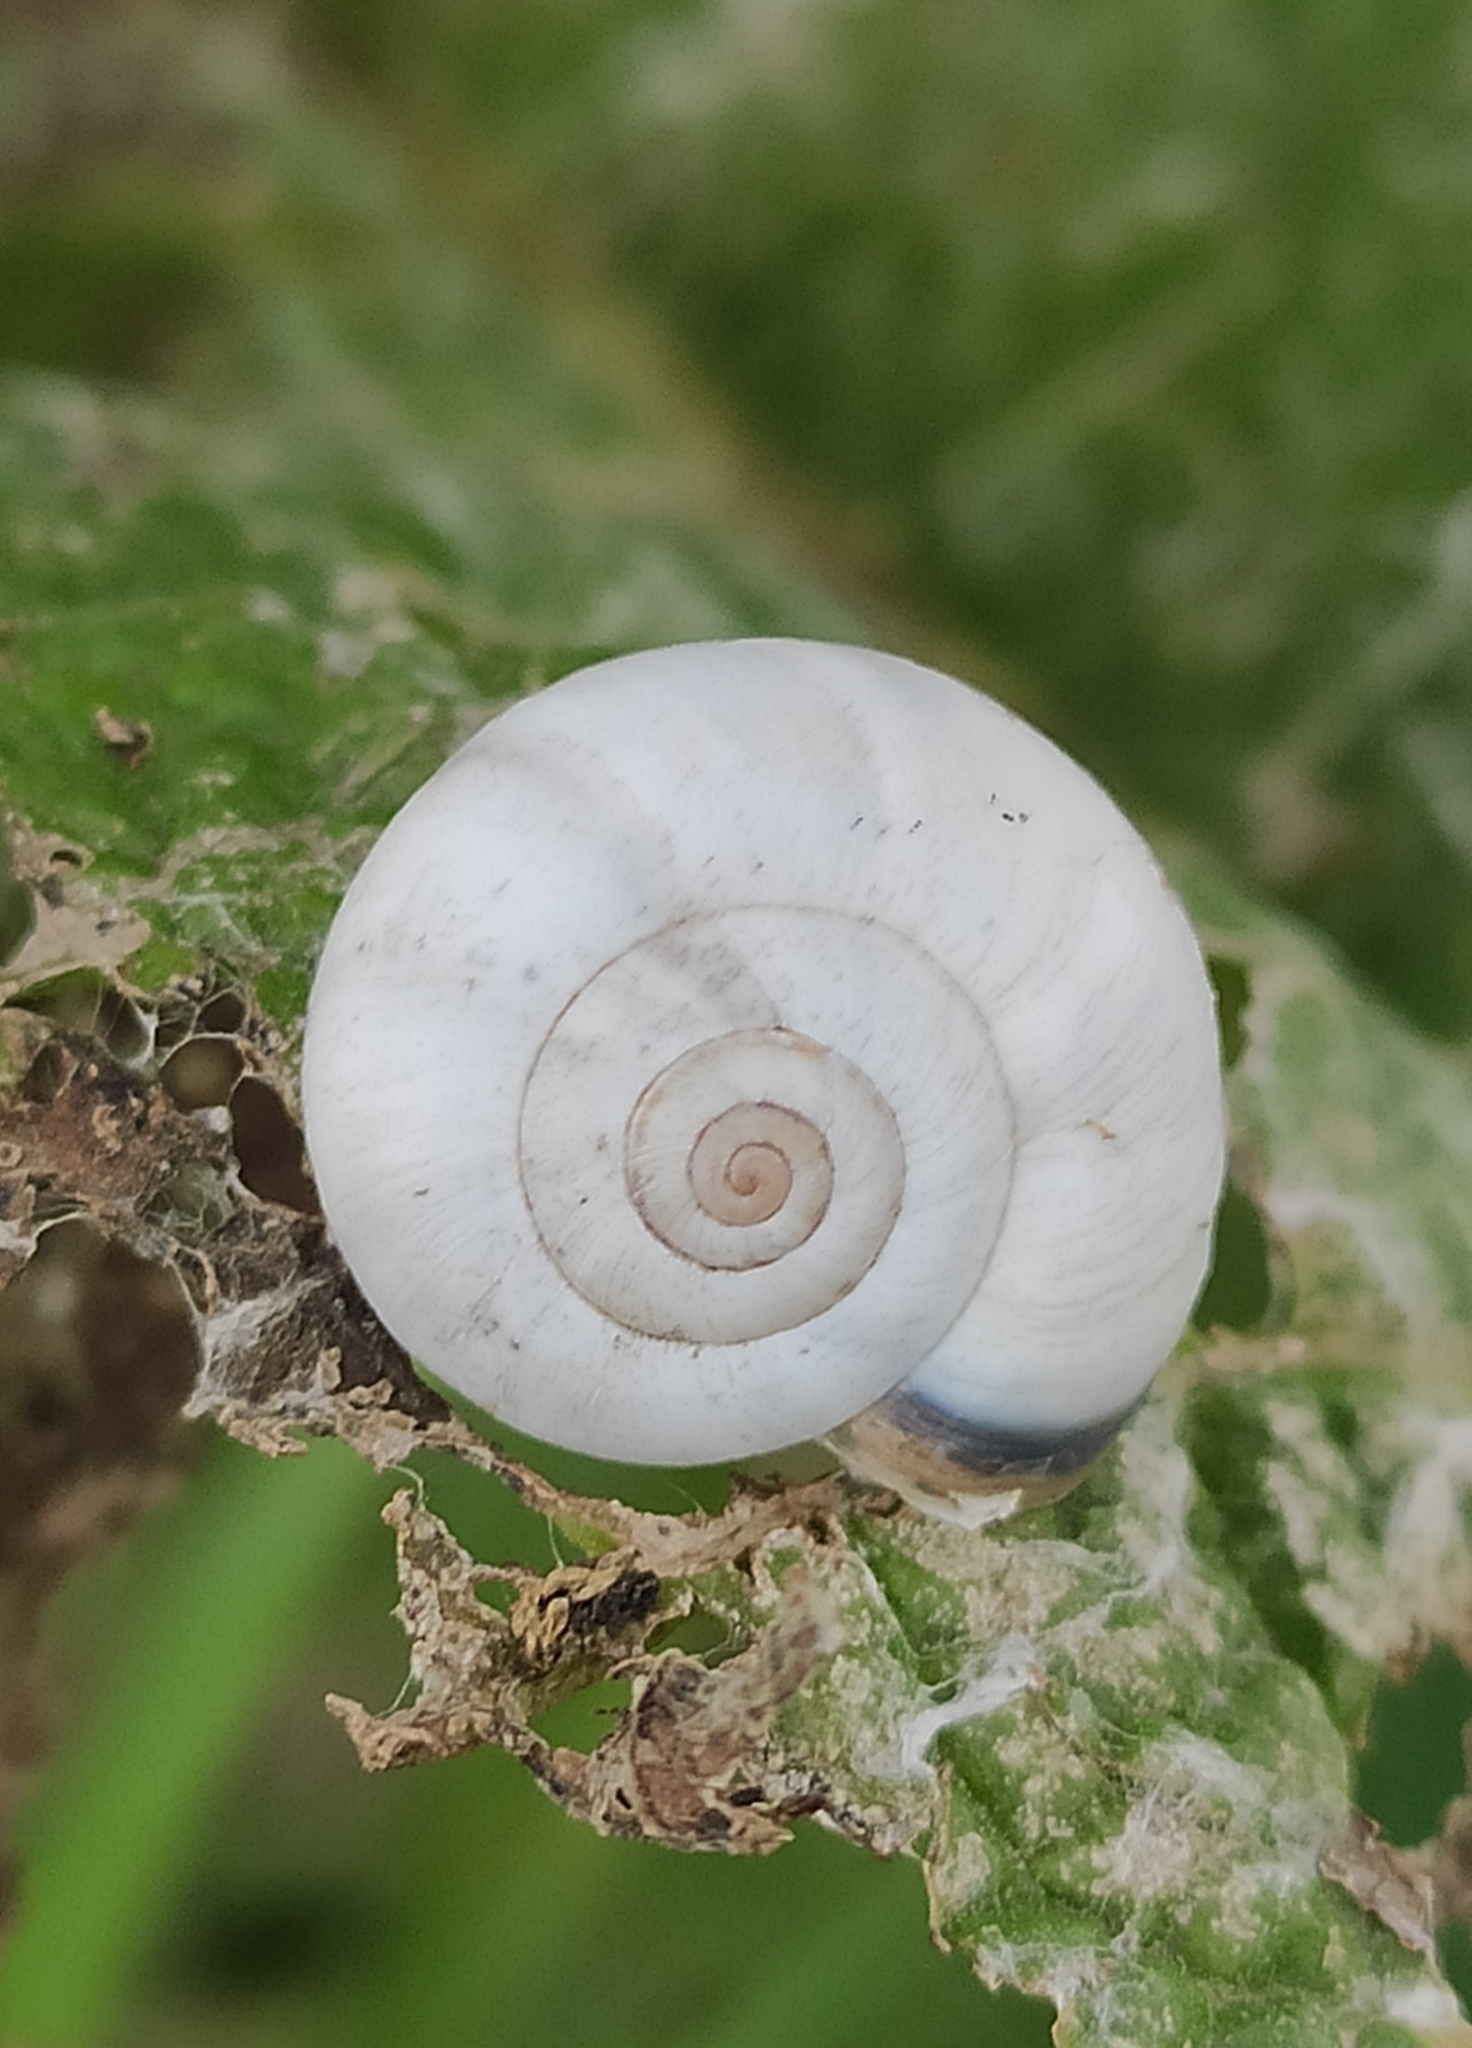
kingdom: Animalia
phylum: Mollusca
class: Gastropoda
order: Stylommatophora
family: Geomitridae
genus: Xeropicta
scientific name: Xeropicta derbentina
